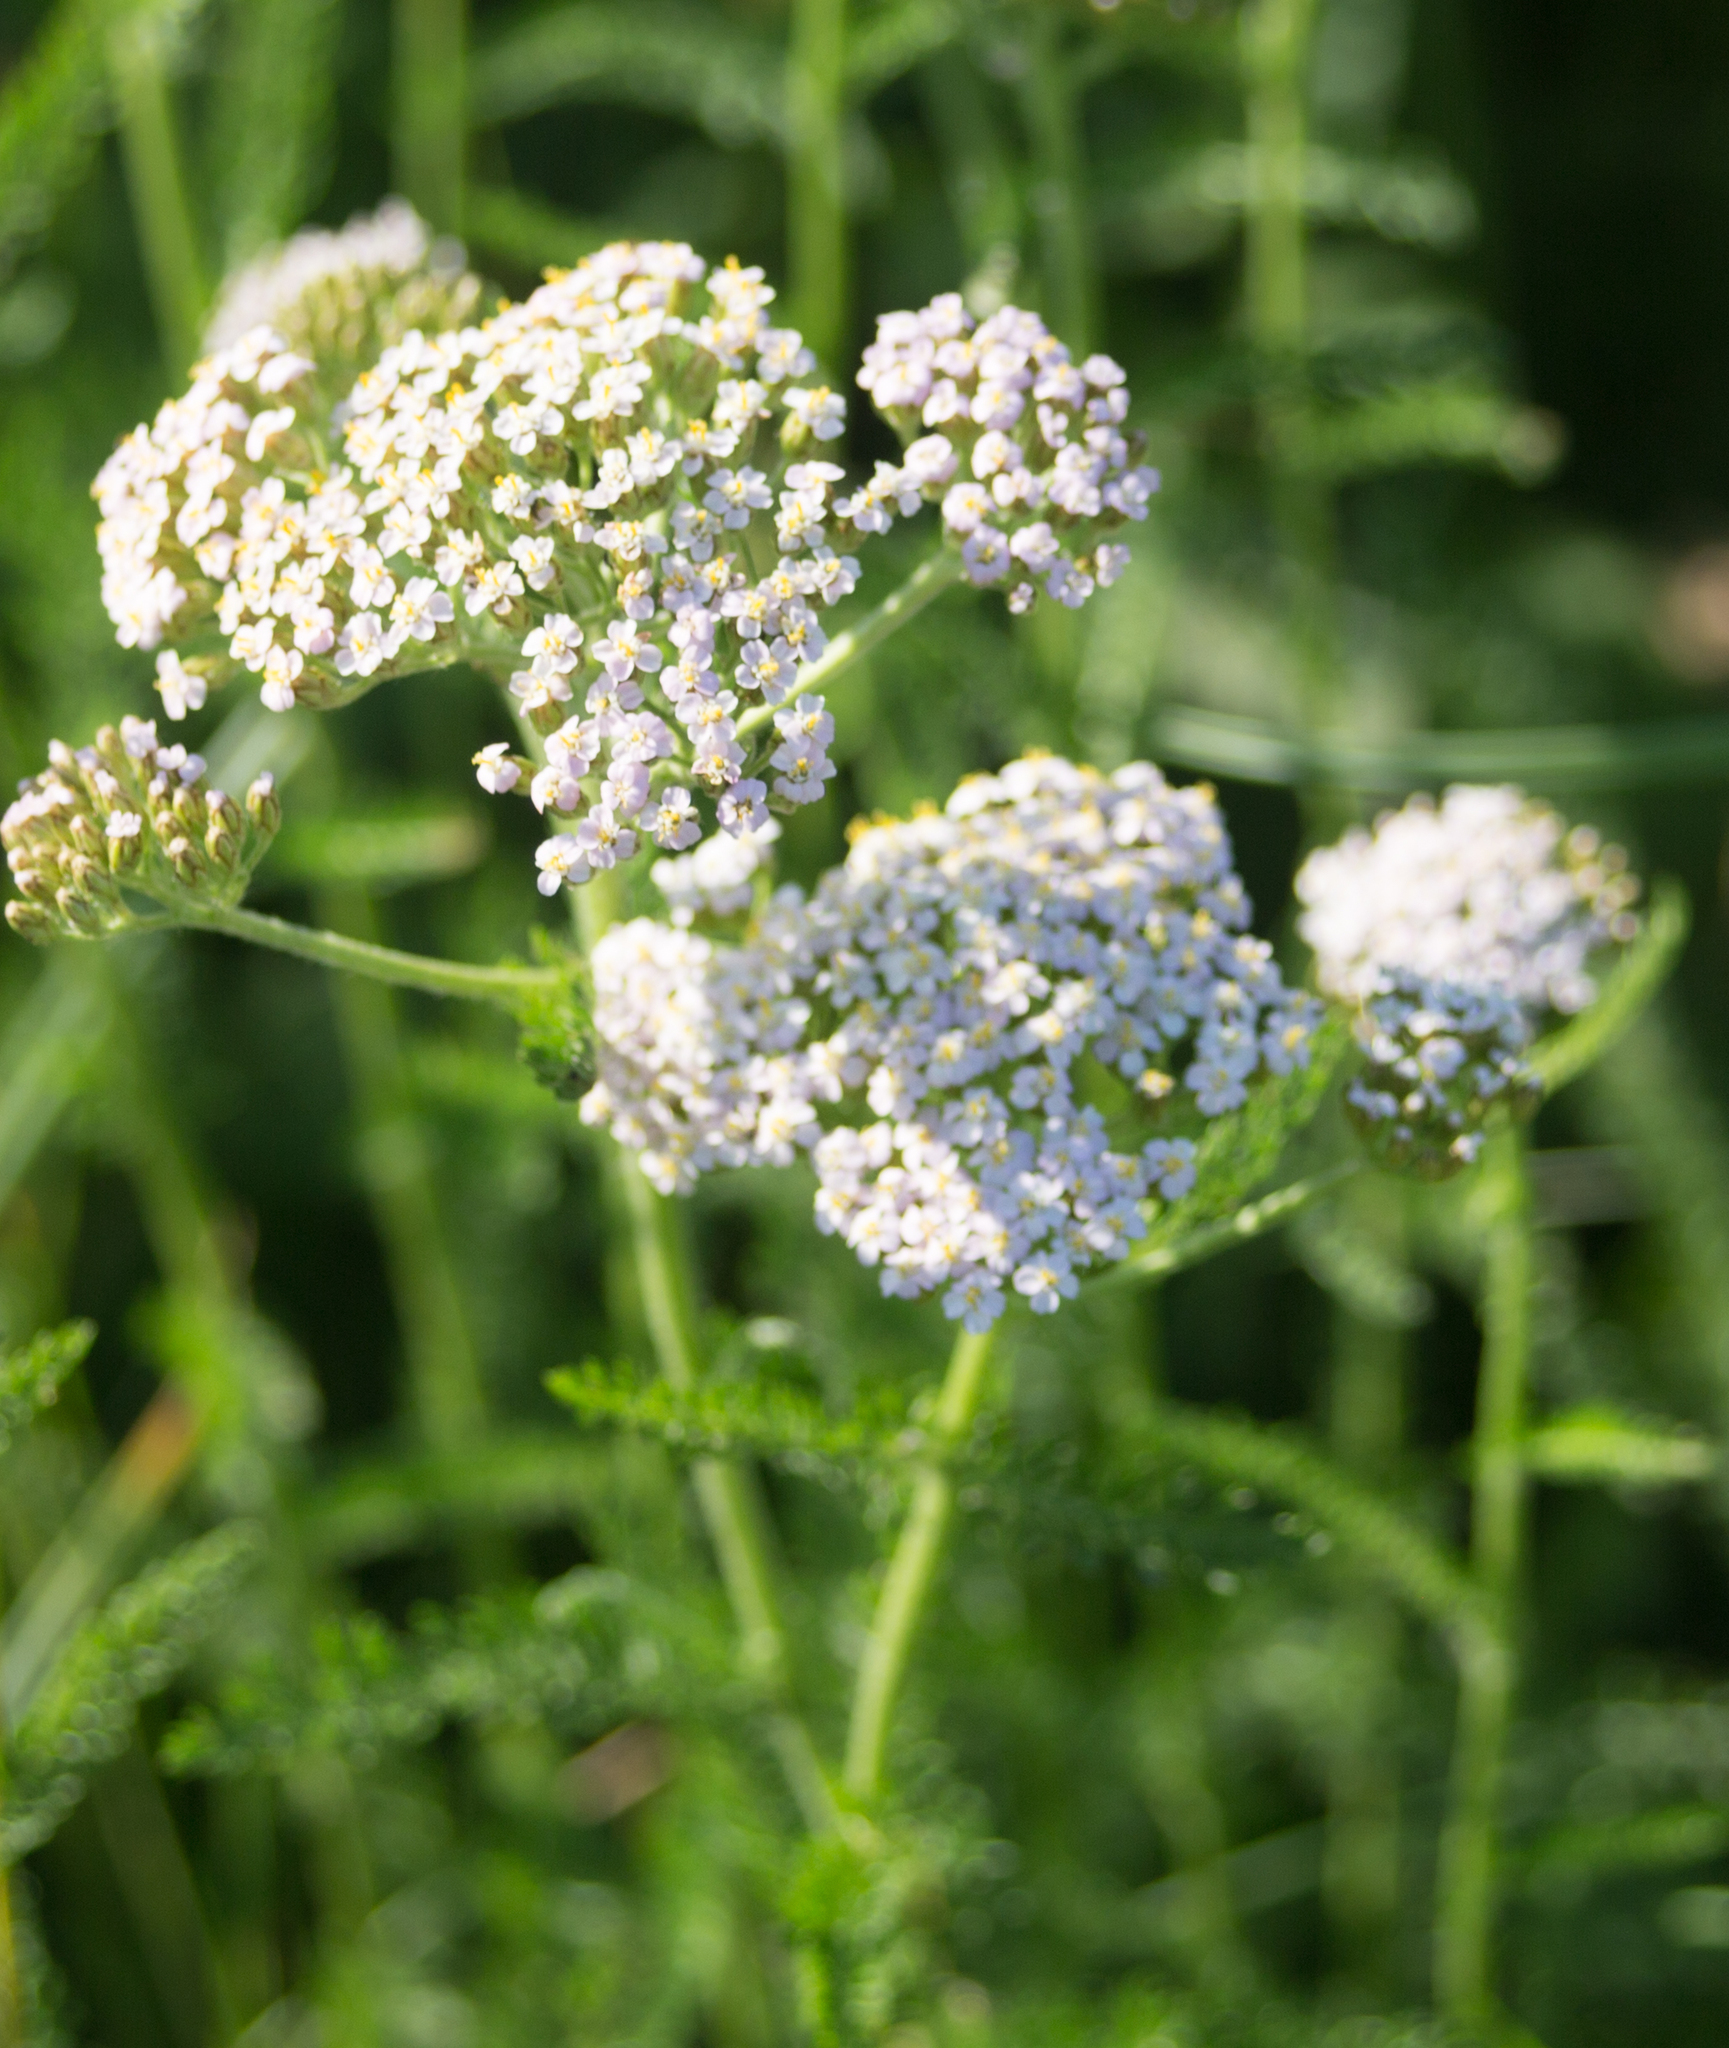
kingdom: Plantae
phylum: Tracheophyta
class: Magnoliopsida
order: Asterales
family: Asteraceae
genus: Achillea
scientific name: Achillea millefolium
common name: Yarrow
